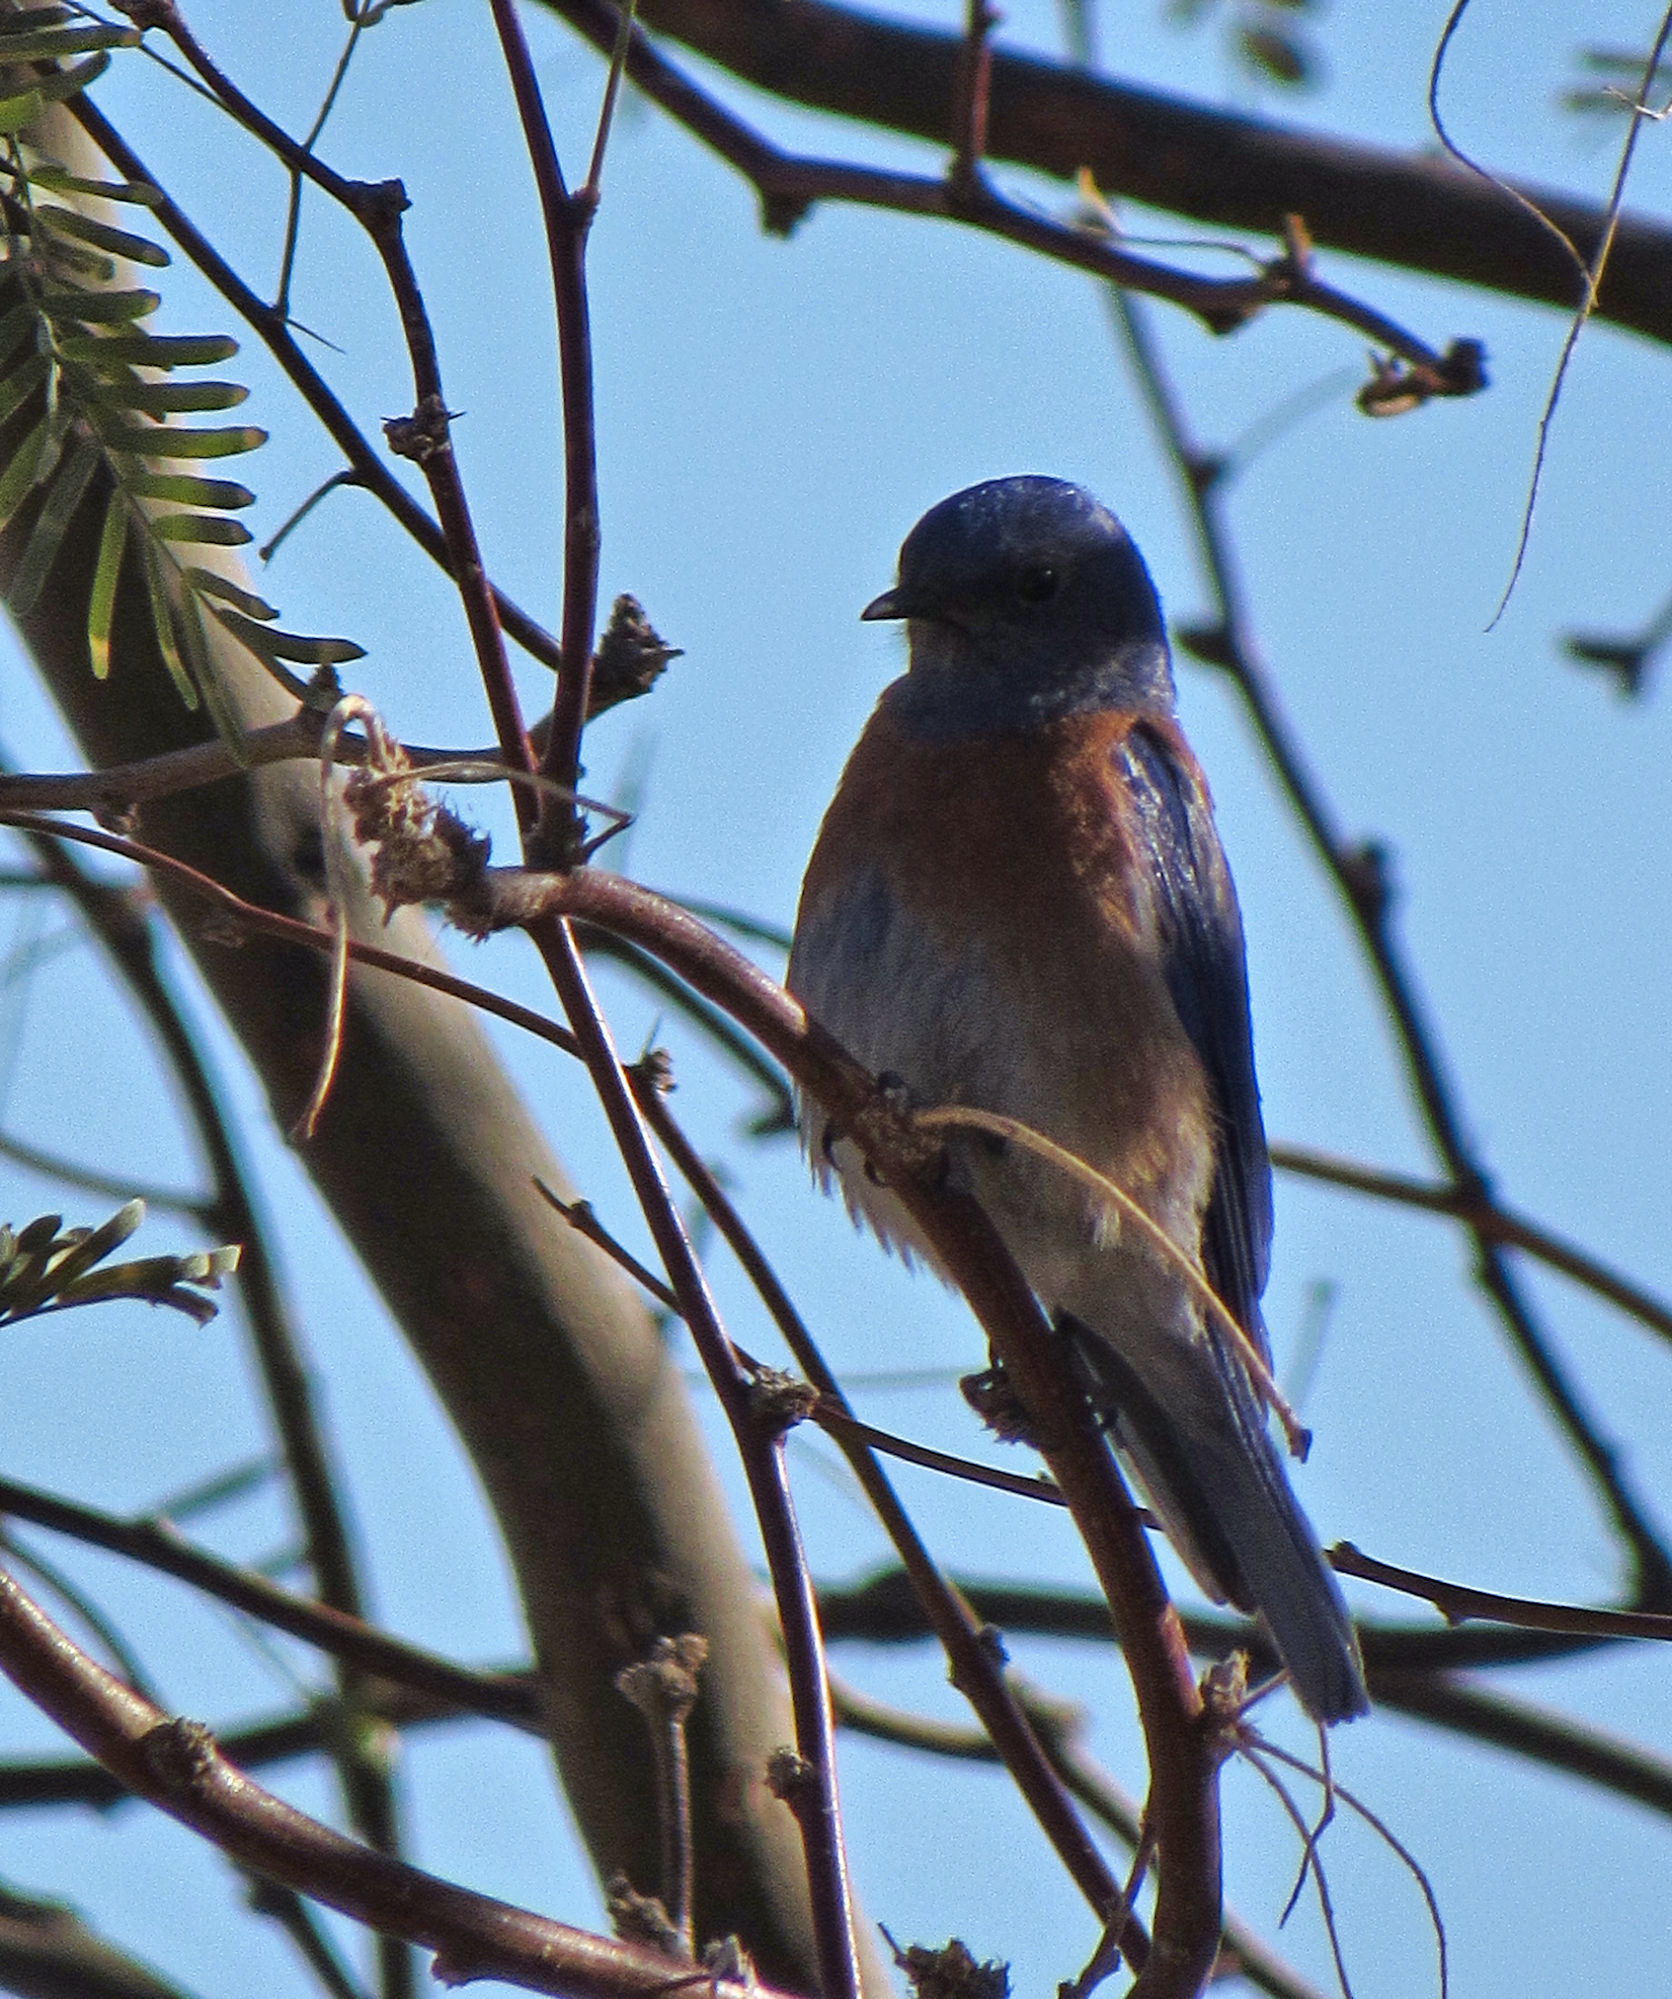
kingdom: Animalia
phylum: Chordata
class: Aves
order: Passeriformes
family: Turdidae
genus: Sialia
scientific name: Sialia mexicana
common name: Western bluebird
